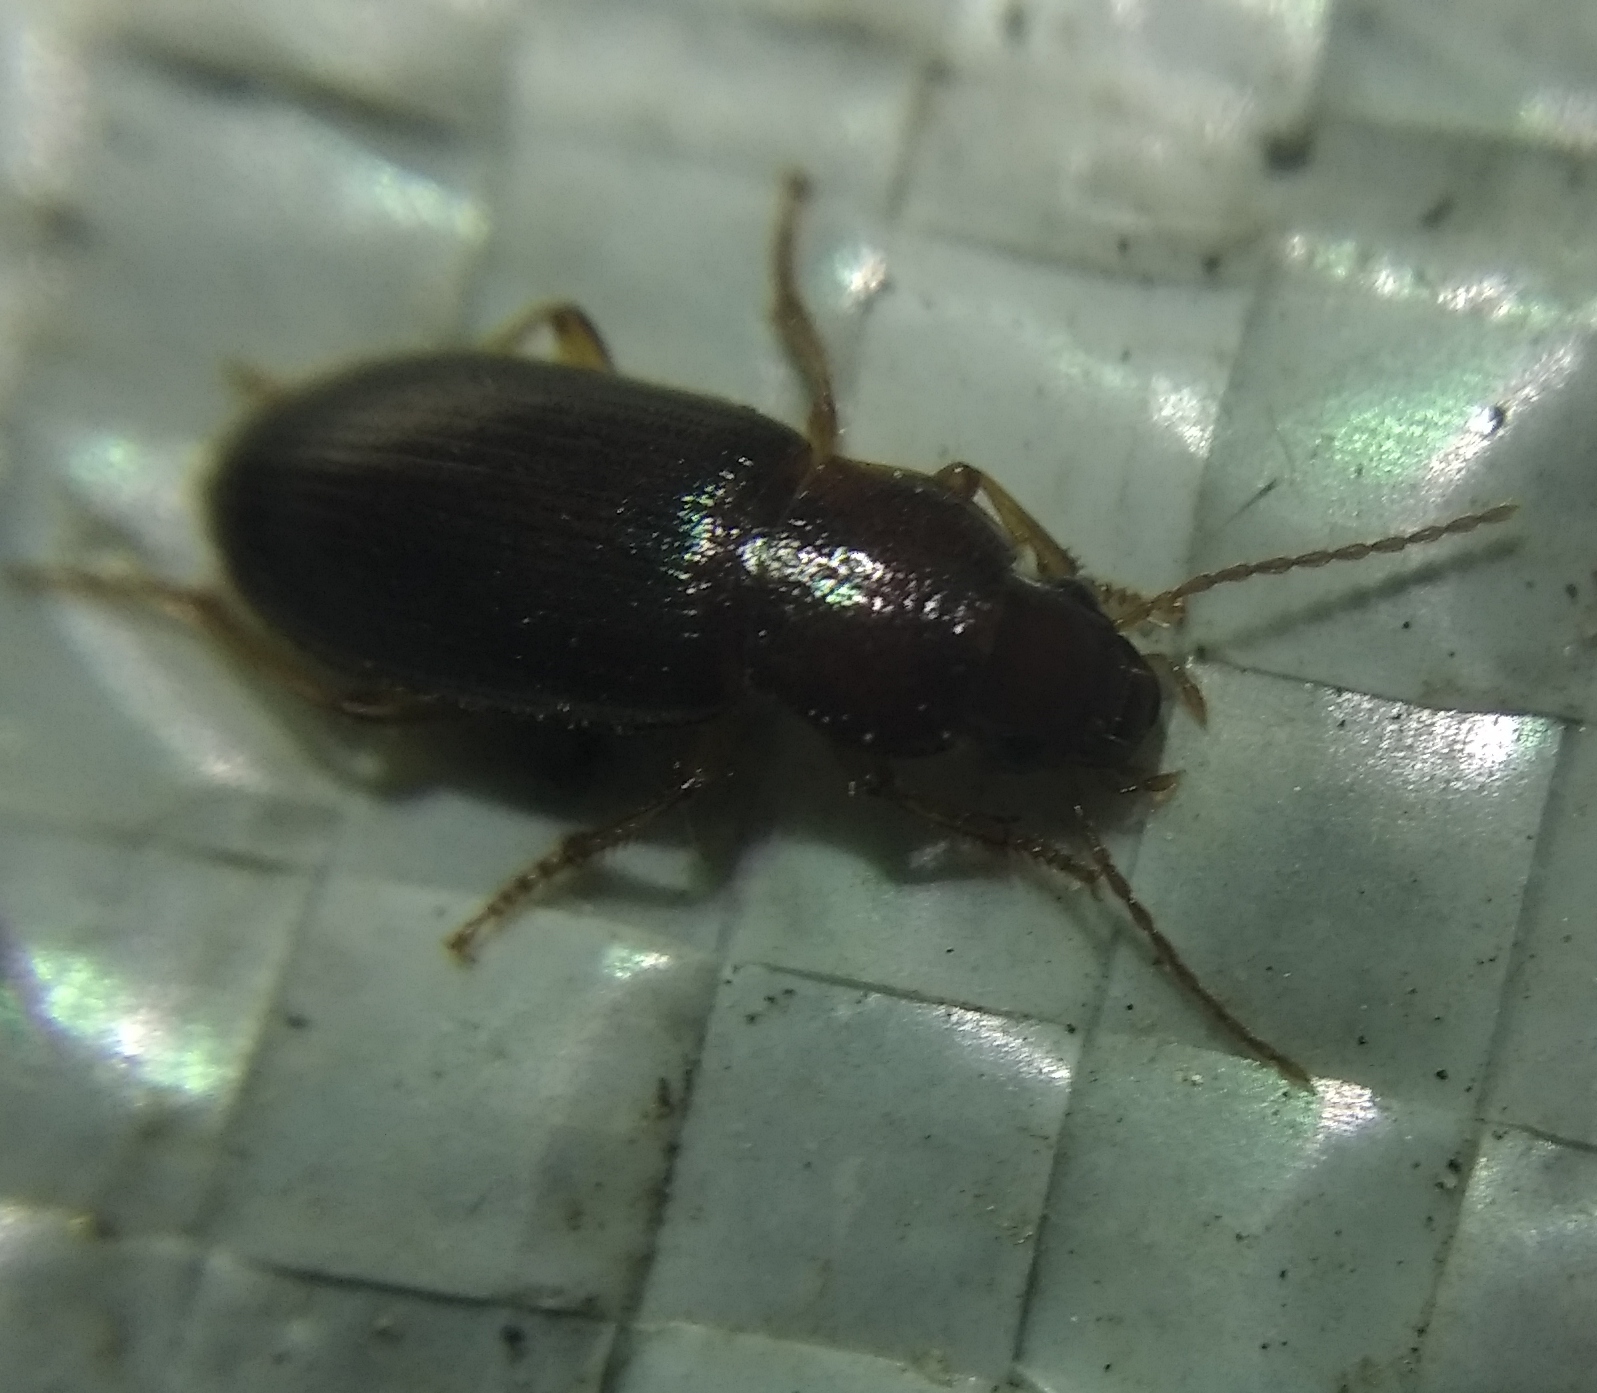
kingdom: Animalia
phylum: Arthropoda
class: Insecta
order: Coleoptera
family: Carabidae
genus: Ophonus
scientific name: Ophonus rupicola
